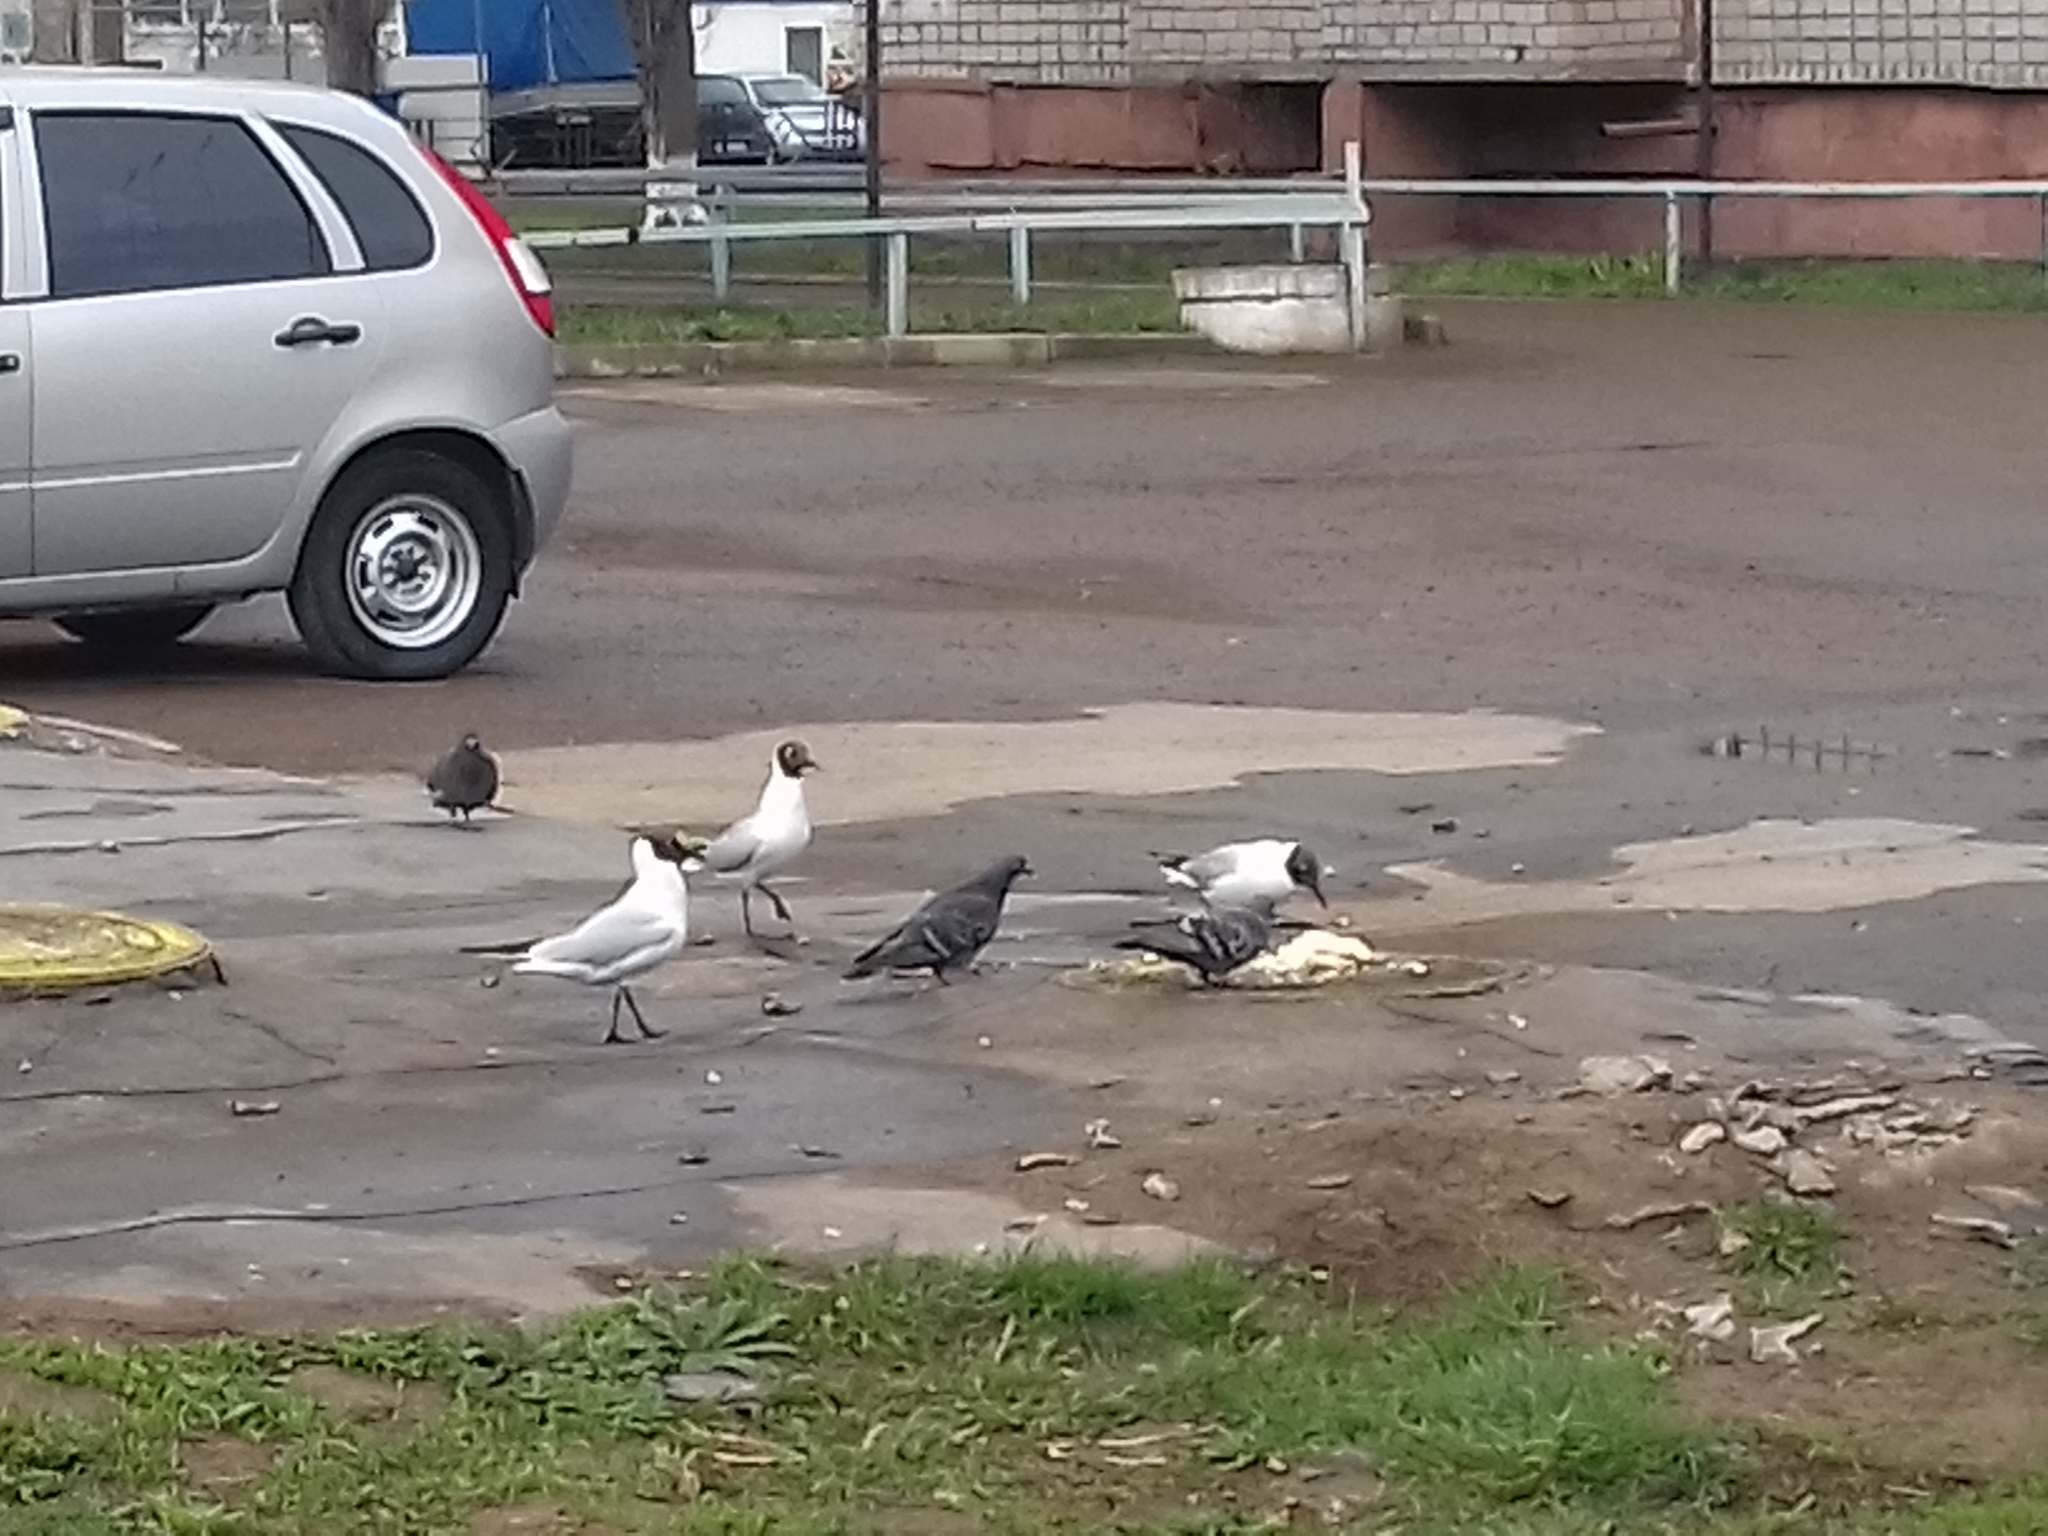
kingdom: Animalia
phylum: Chordata
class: Aves
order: Charadriiformes
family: Laridae
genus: Chroicocephalus
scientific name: Chroicocephalus ridibundus
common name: Black-headed gull
